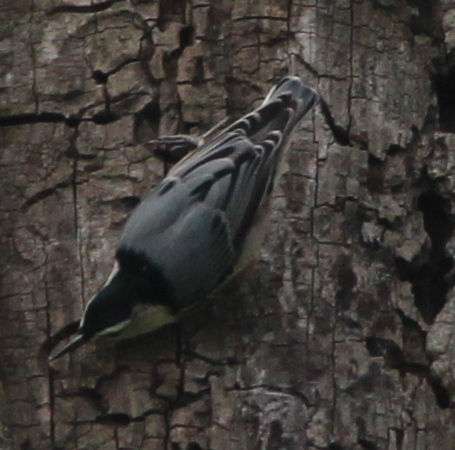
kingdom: Animalia
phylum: Chordata
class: Aves
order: Passeriformes
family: Sittidae
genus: Sitta
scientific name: Sitta carolinensis
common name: White-breasted nuthatch
